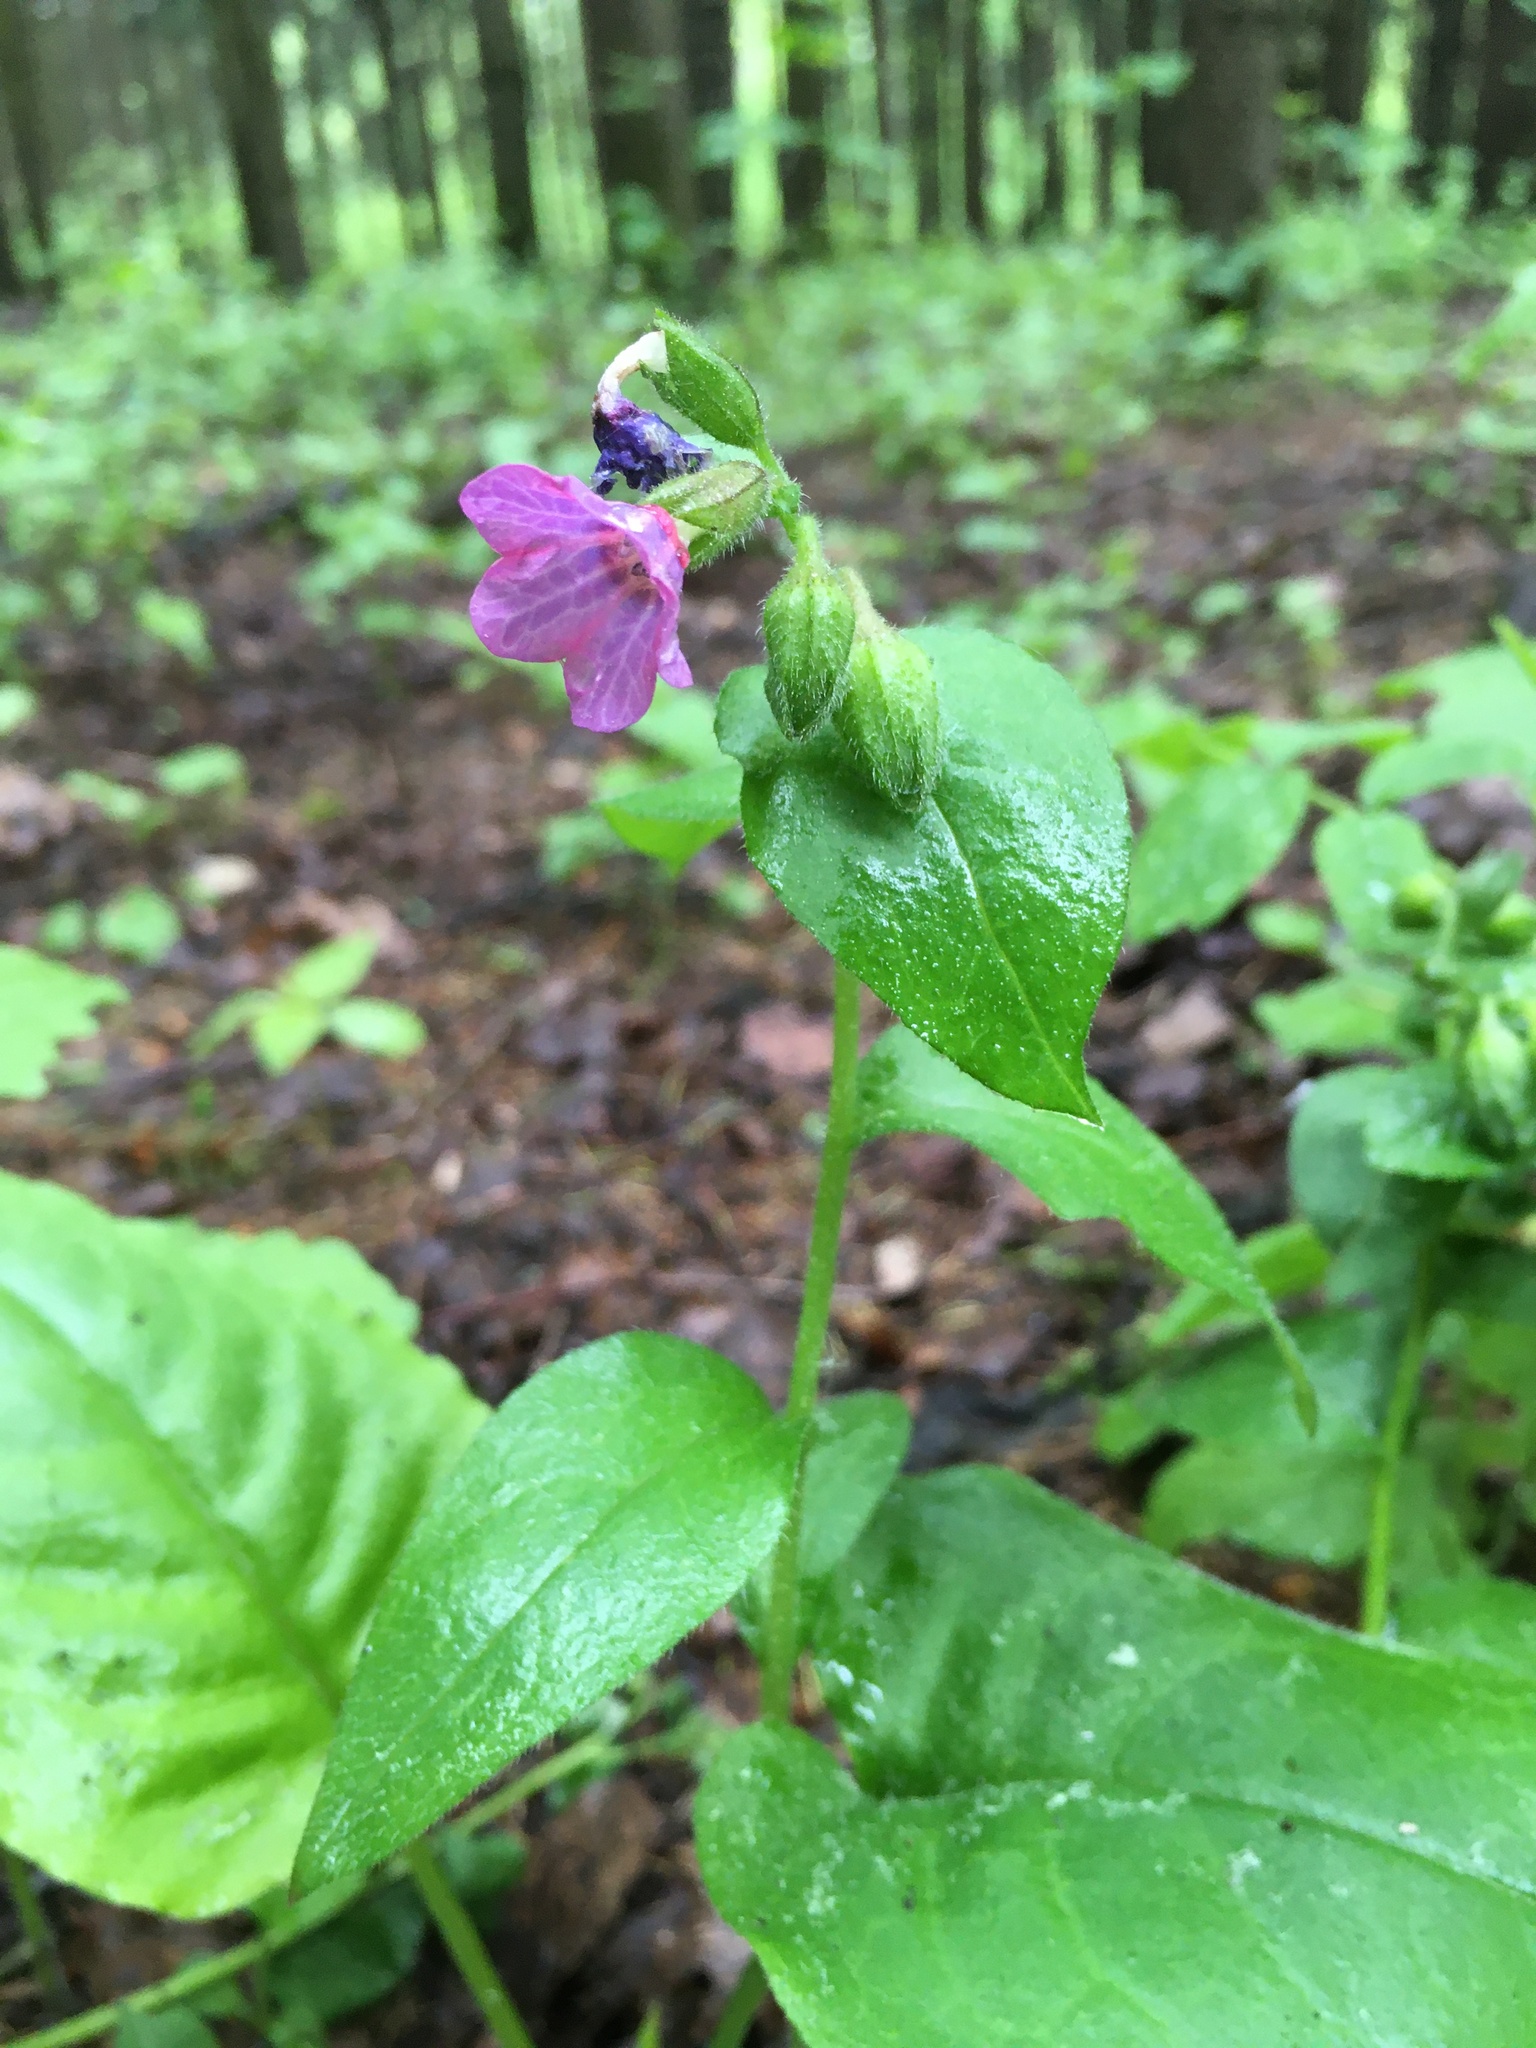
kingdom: Plantae
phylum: Tracheophyta
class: Magnoliopsida
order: Boraginales
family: Boraginaceae
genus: Pulmonaria
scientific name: Pulmonaria obscura
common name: Suffolk lungwort
